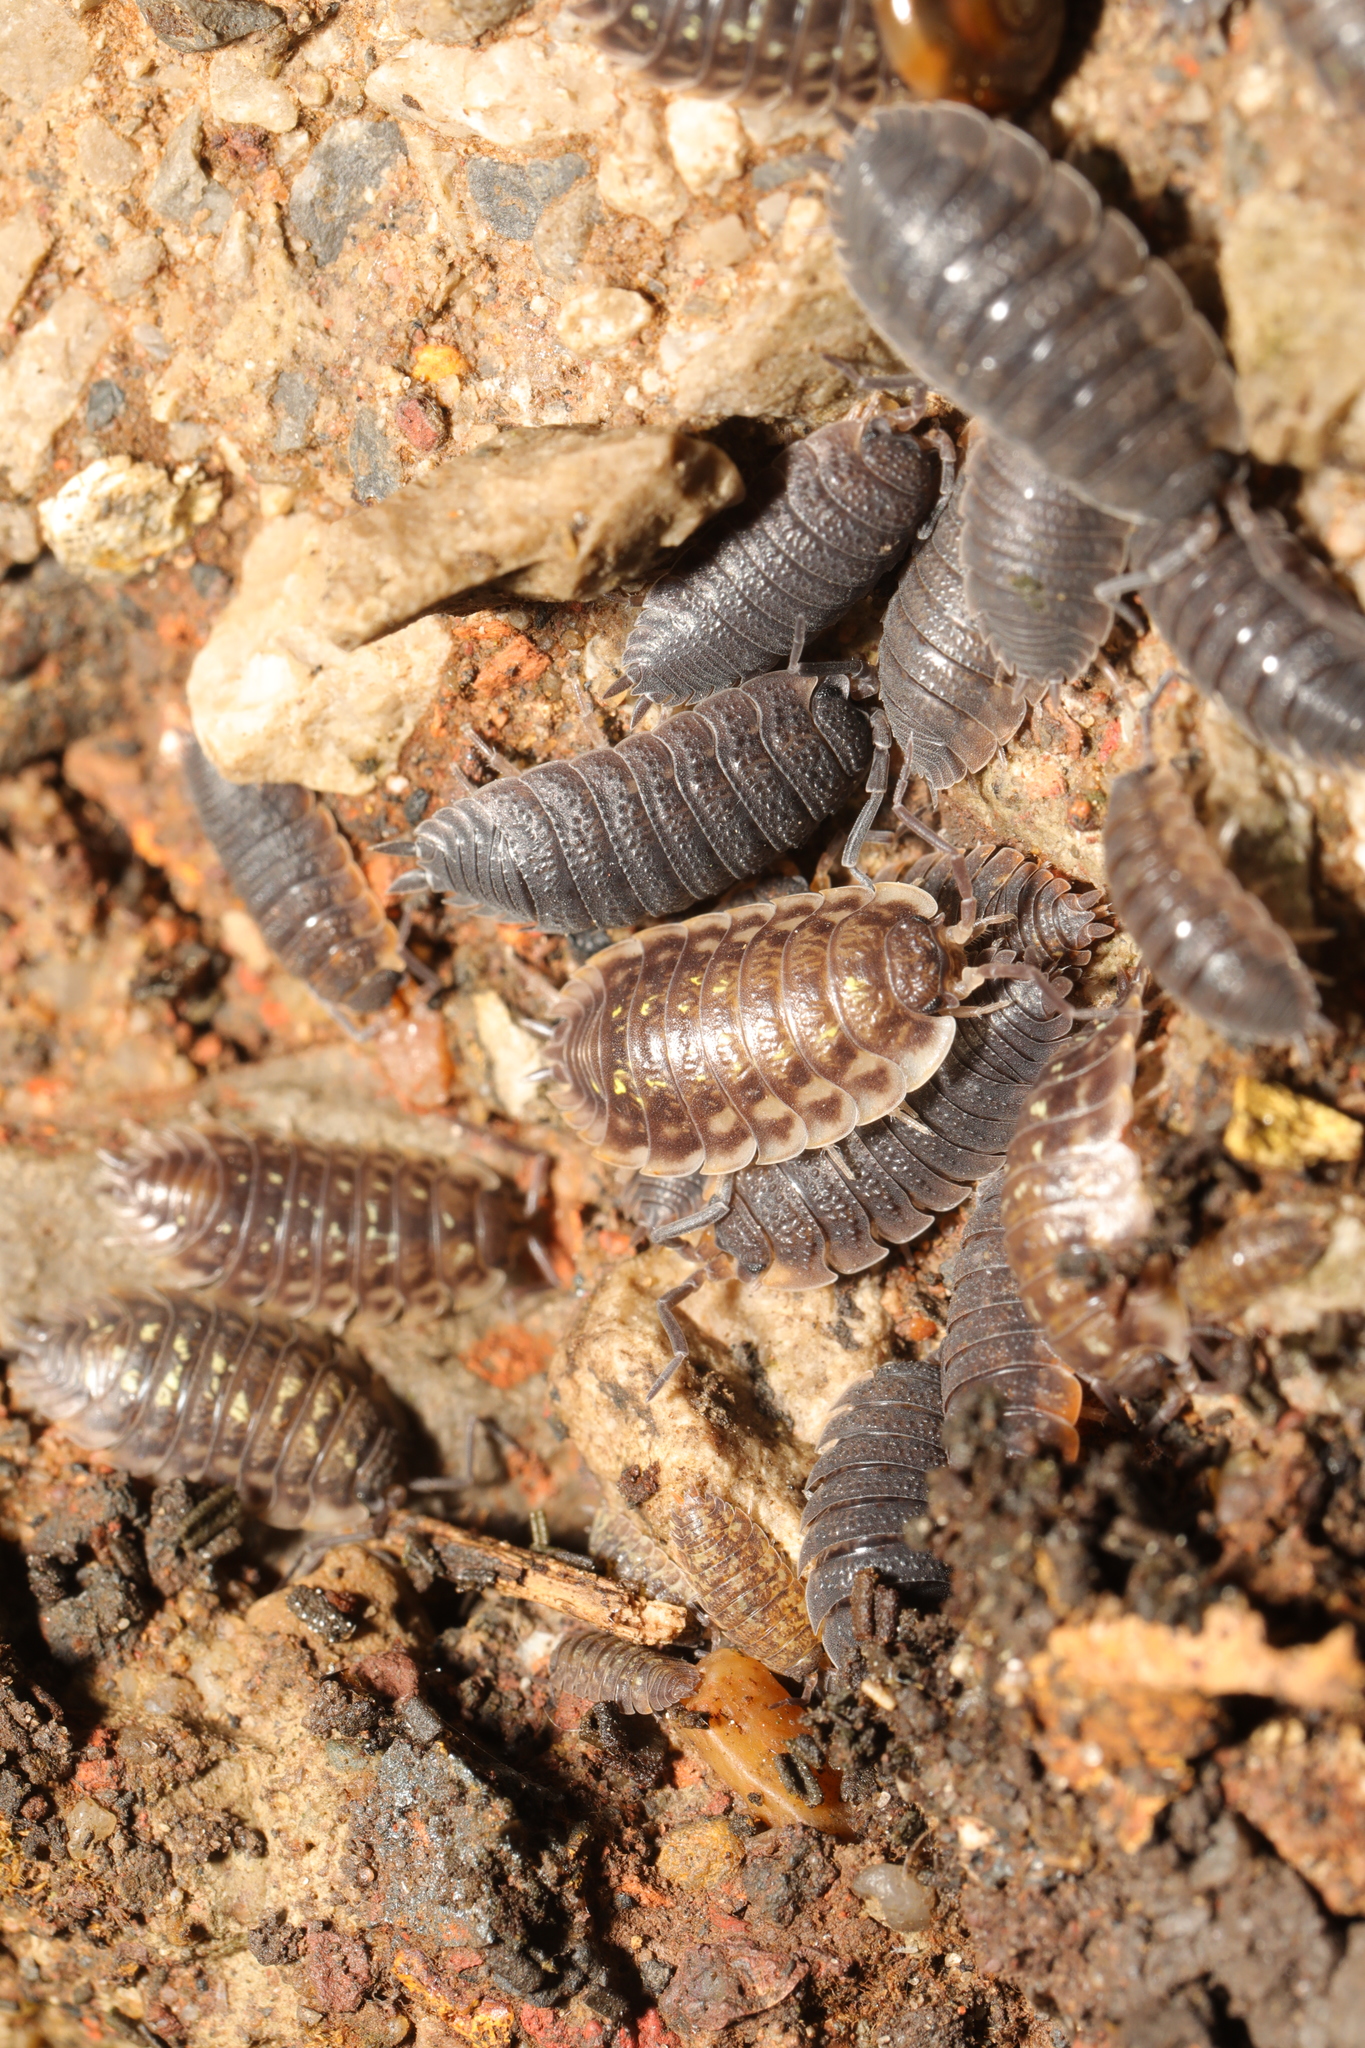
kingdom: Animalia
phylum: Arthropoda
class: Malacostraca
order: Isopoda
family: Oniscidae
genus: Oniscus
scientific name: Oniscus asellus
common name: Common shiny woodlouse
